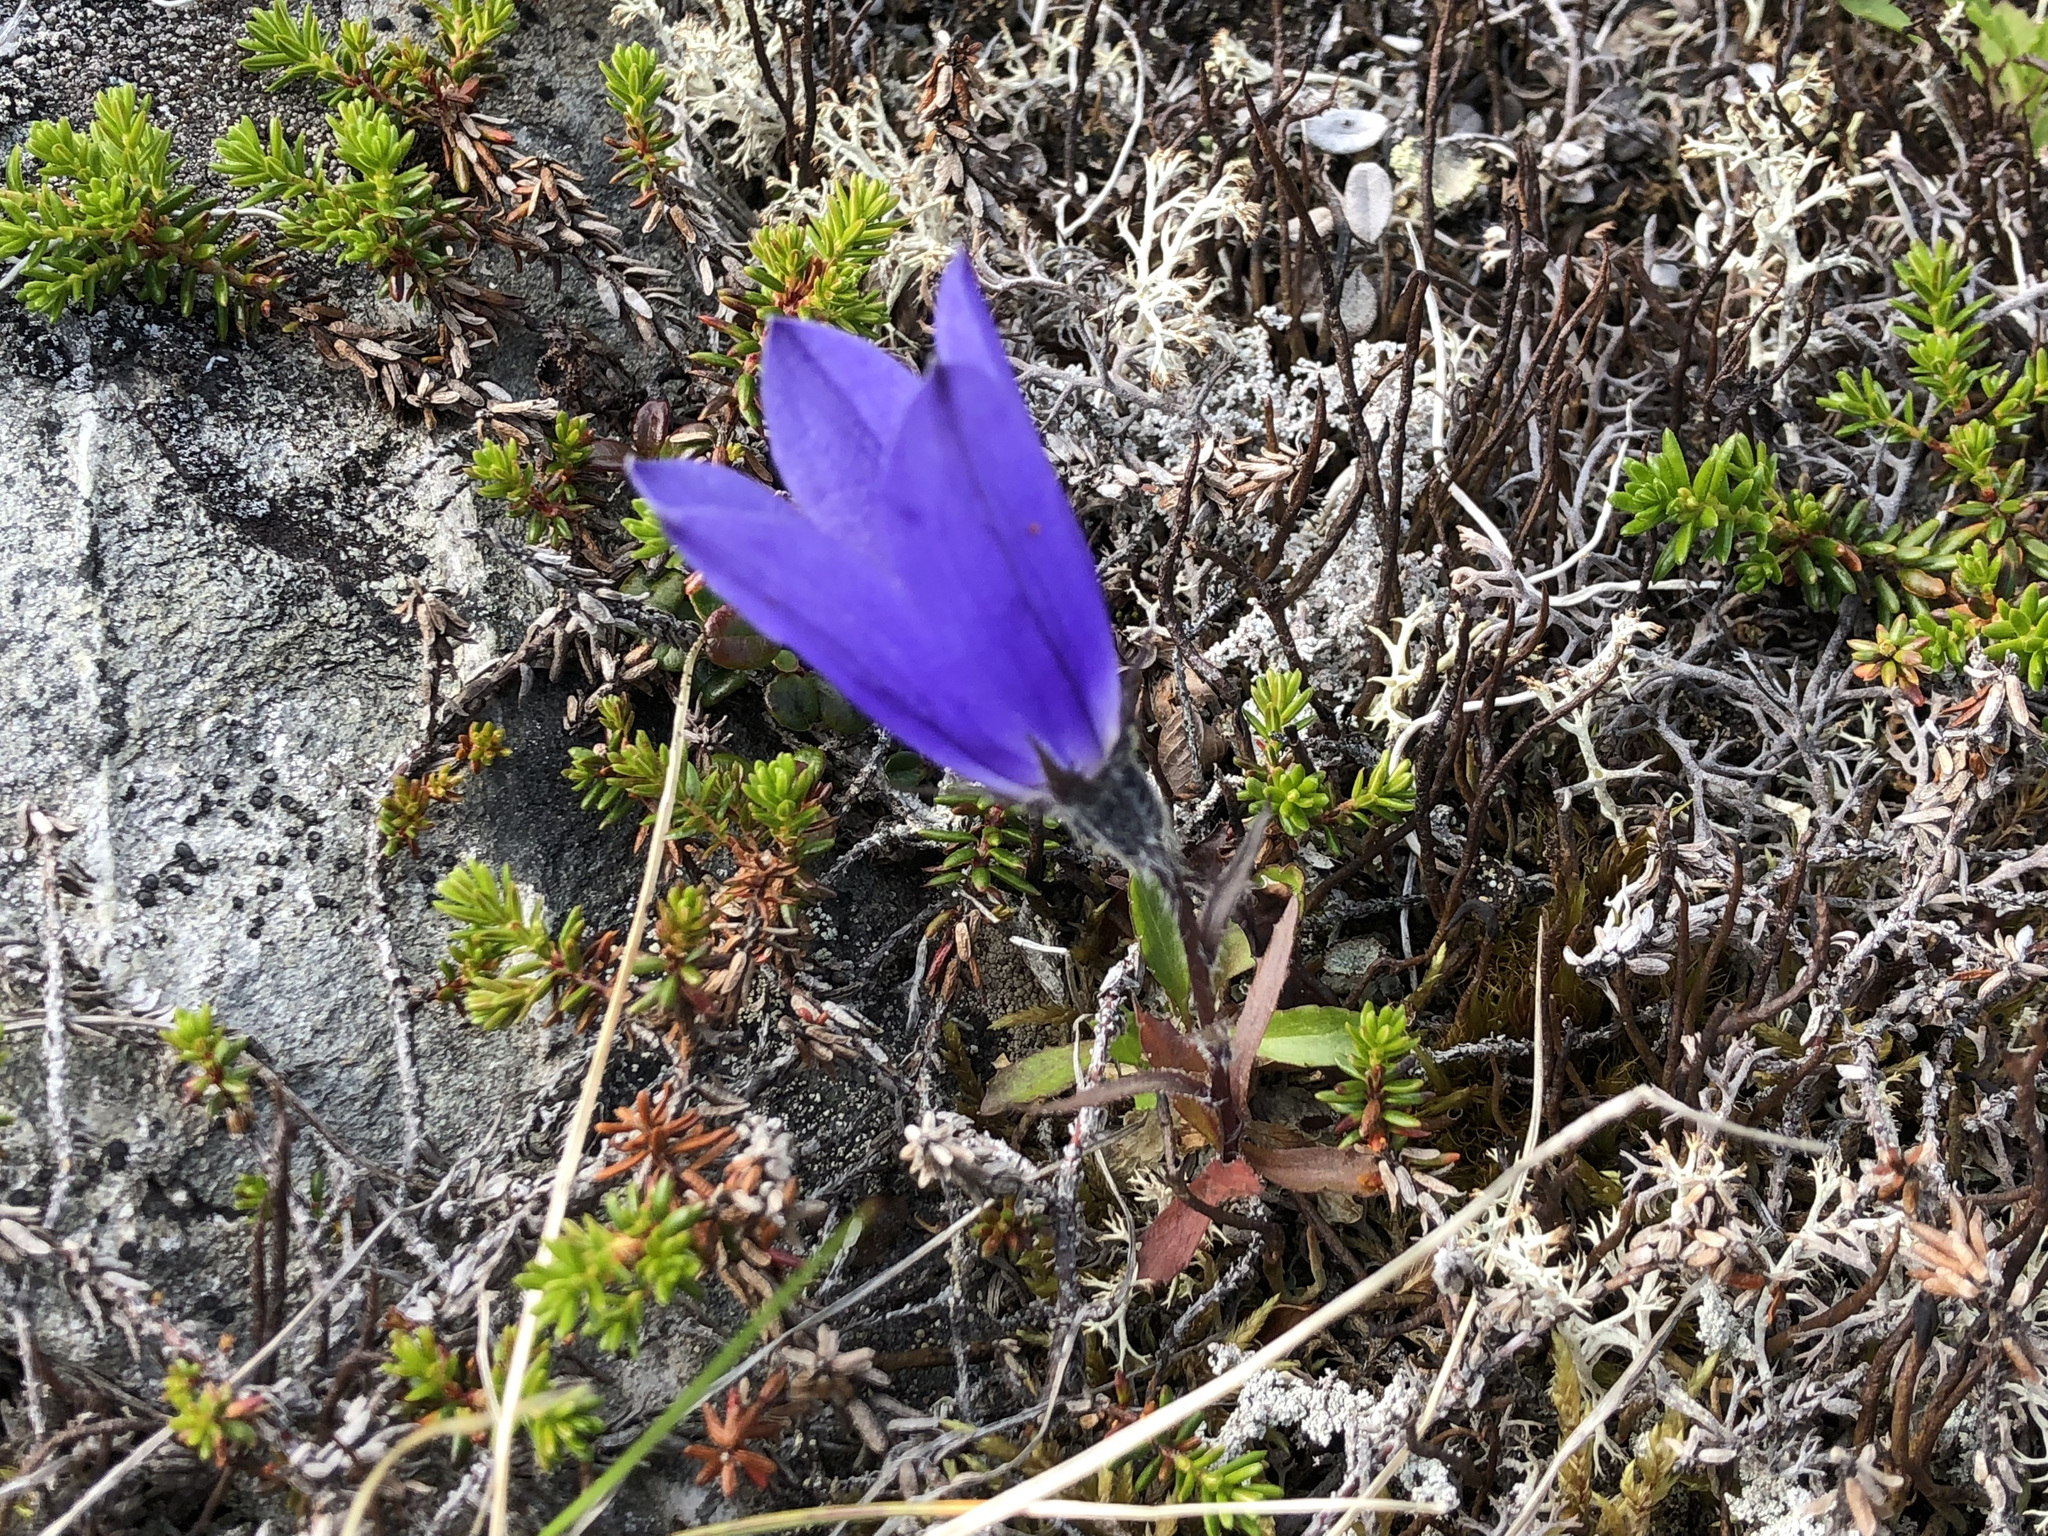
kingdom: Plantae
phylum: Tracheophyta
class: Magnoliopsida
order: Asterales
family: Campanulaceae
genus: Campanula
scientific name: Campanula lasiocarpa
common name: Mountain harebell
